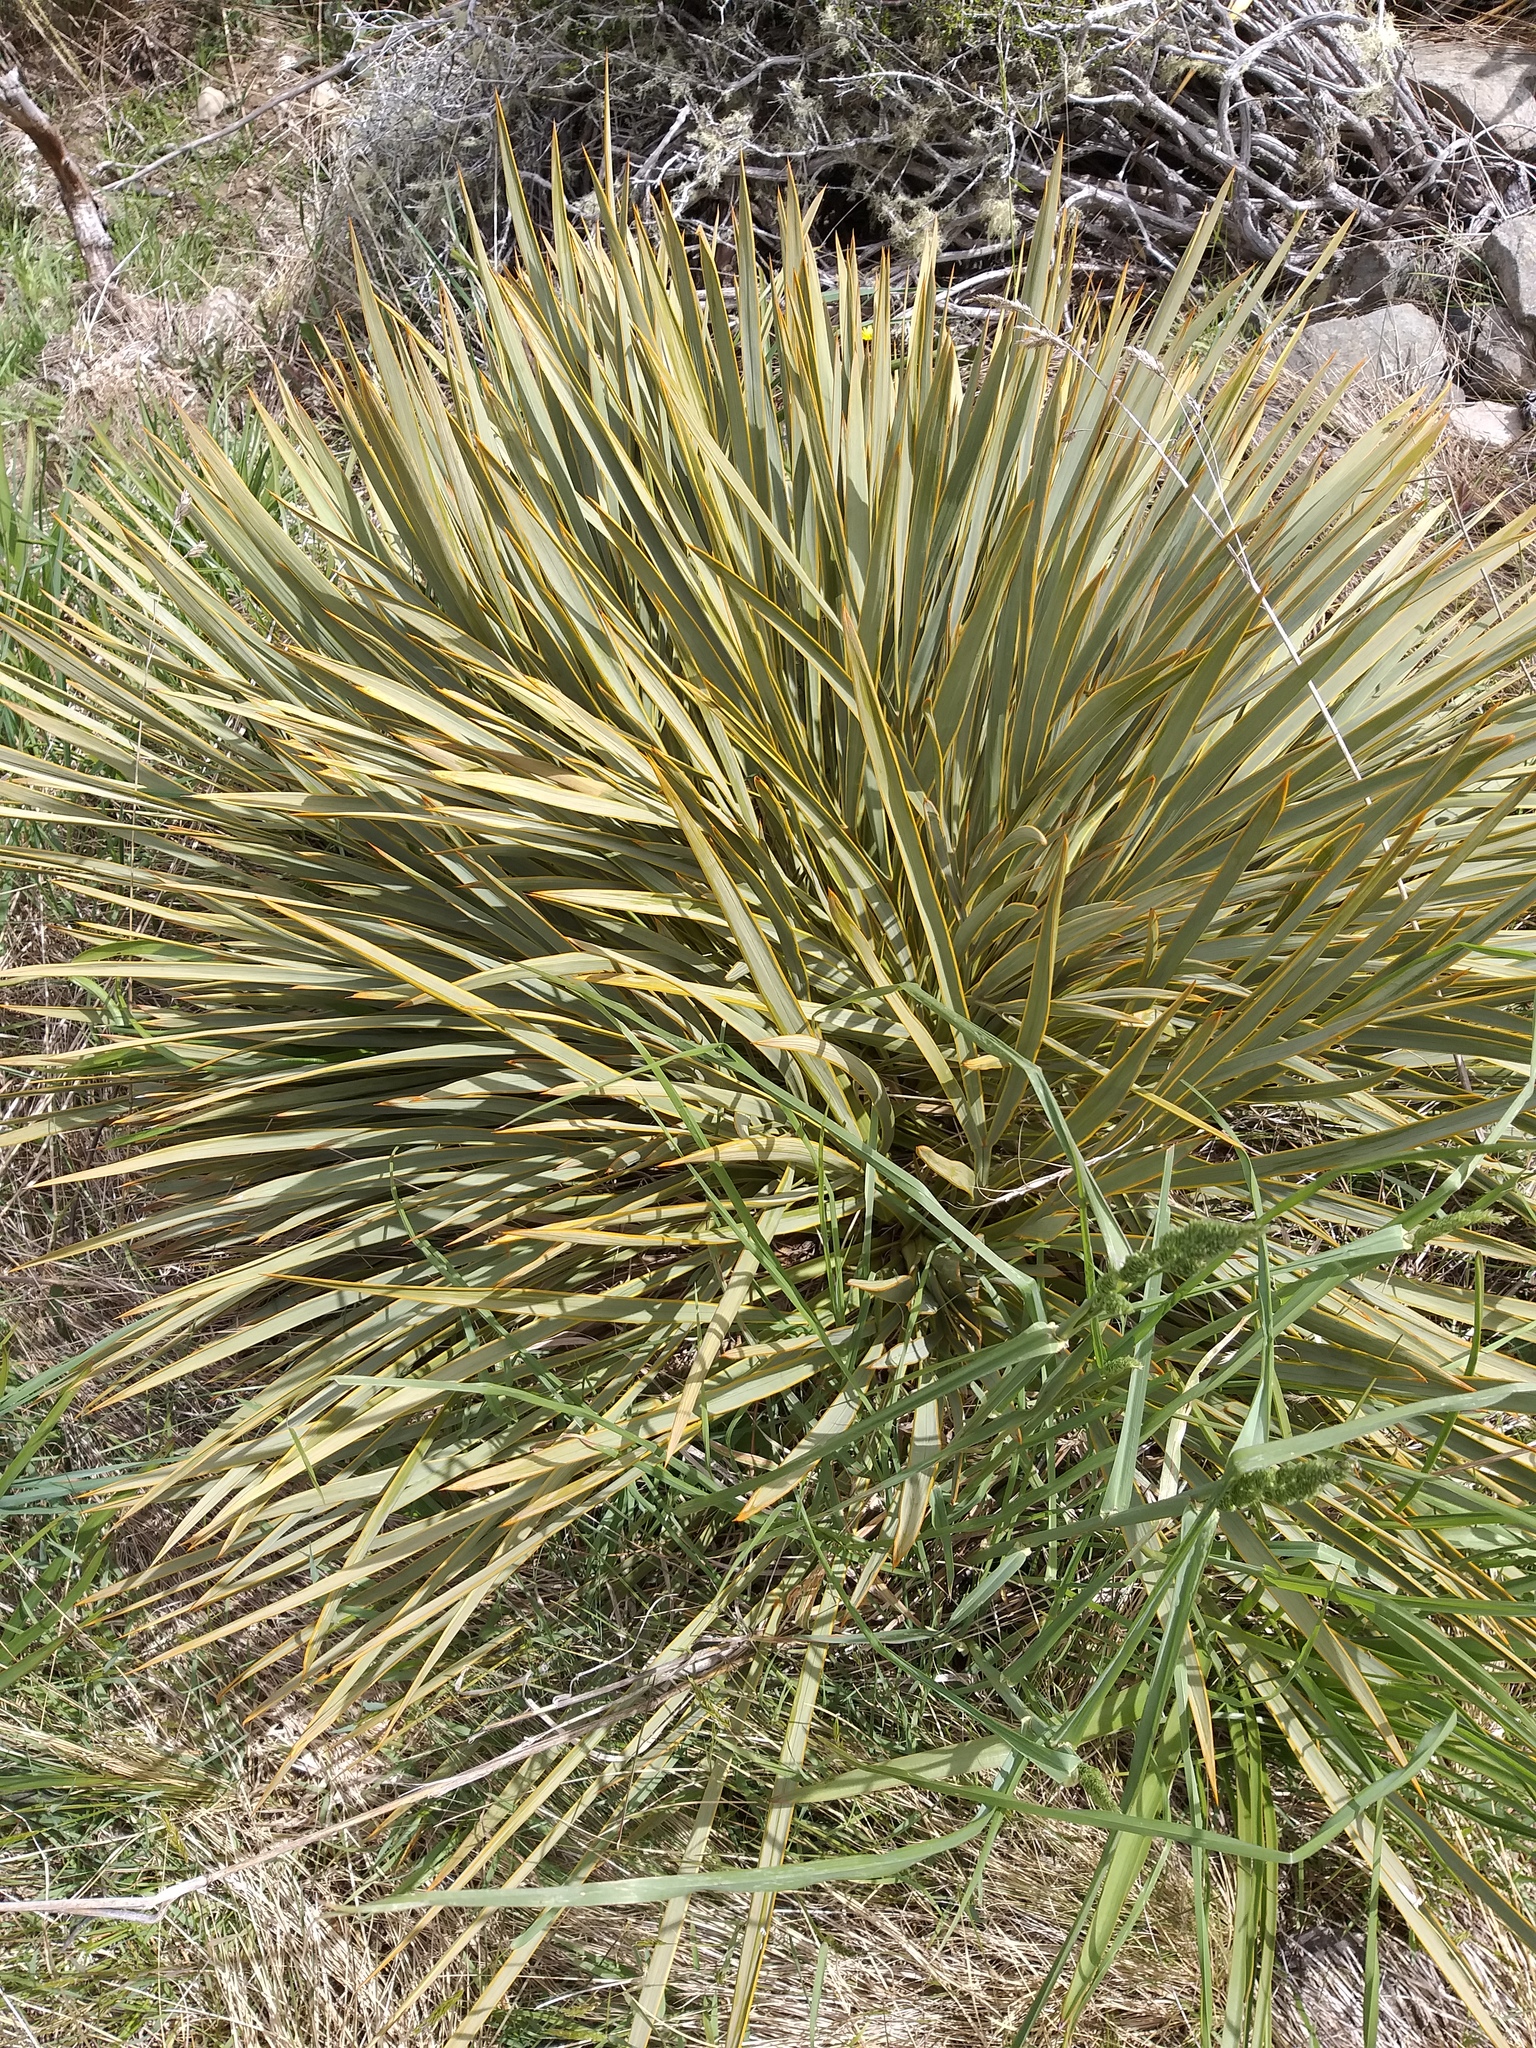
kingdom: Plantae
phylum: Tracheophyta
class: Magnoliopsida
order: Apiales
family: Apiaceae
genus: Aciphylla
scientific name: Aciphylla aurea
